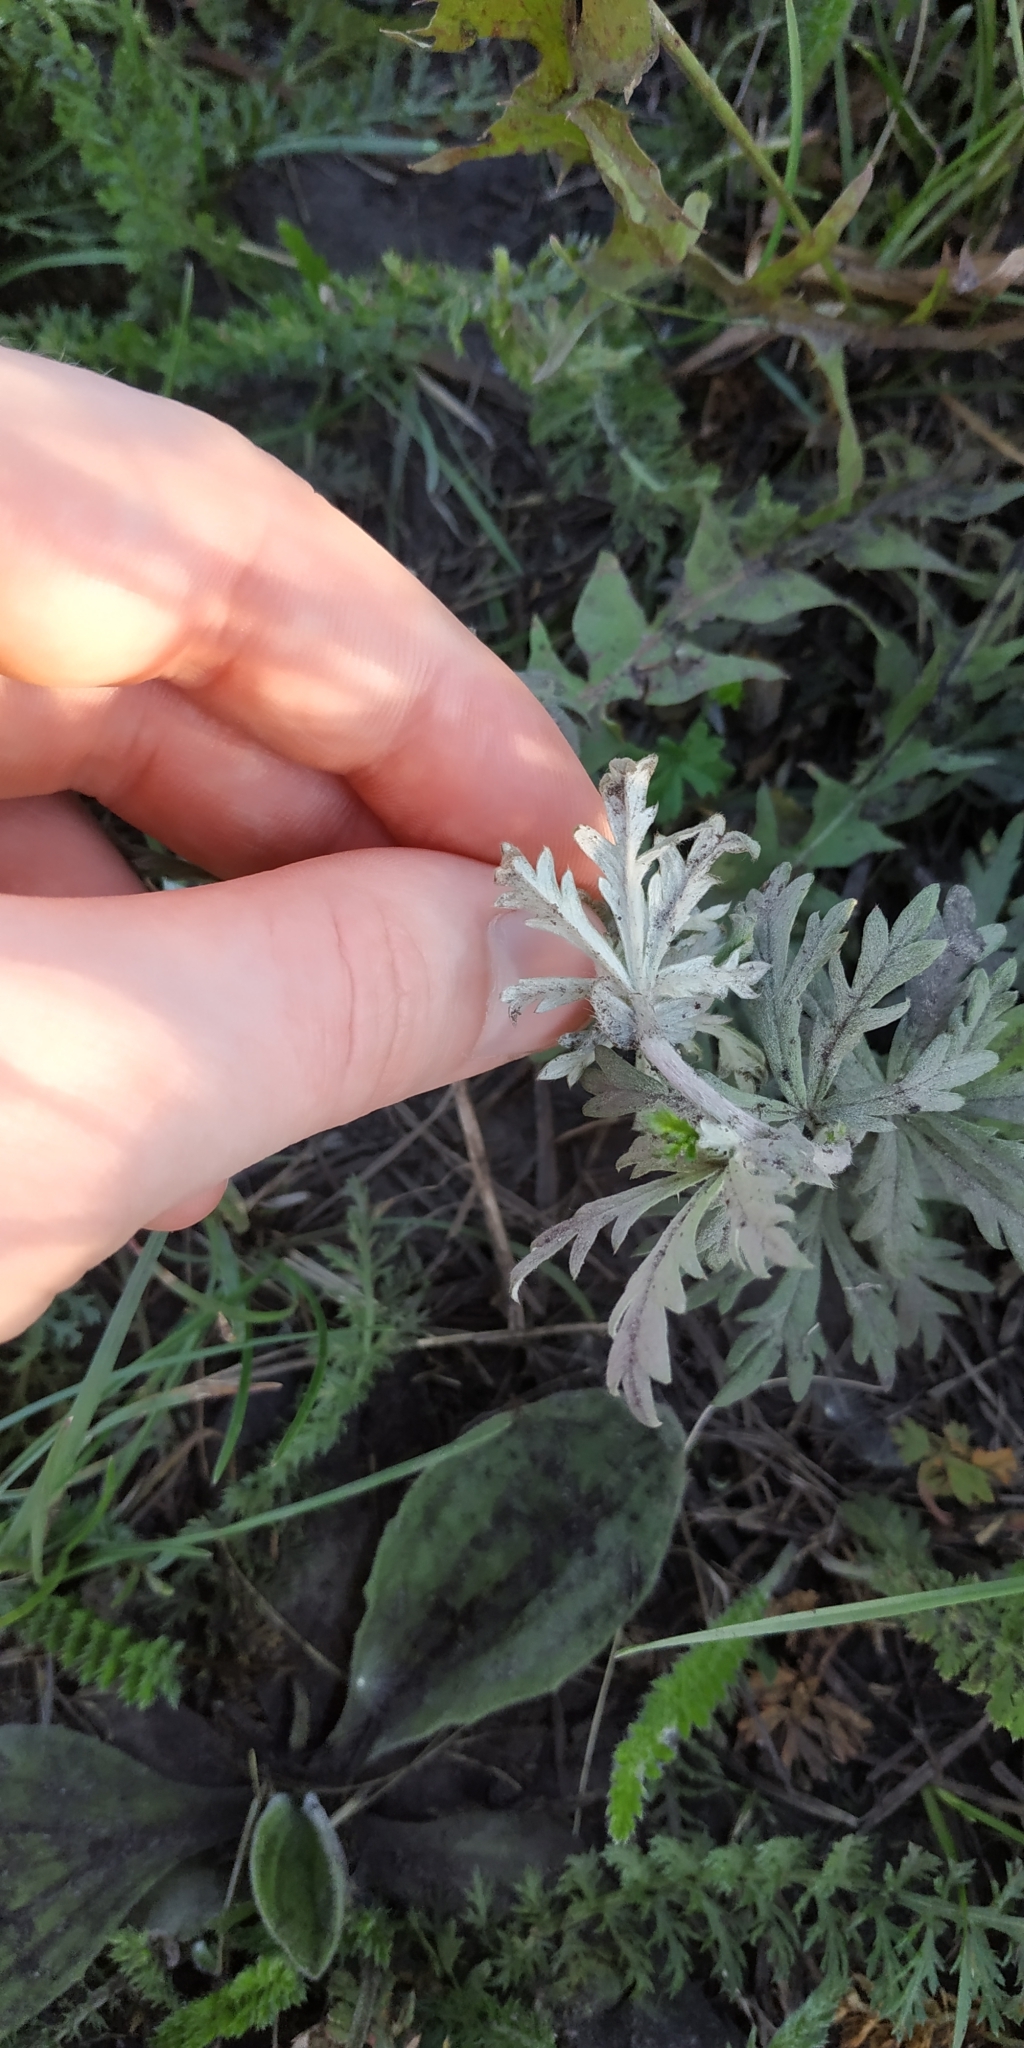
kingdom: Plantae
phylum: Tracheophyta
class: Magnoliopsida
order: Rosales
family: Rosaceae
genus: Potentilla
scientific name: Potentilla argentea
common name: Hoary cinquefoil
